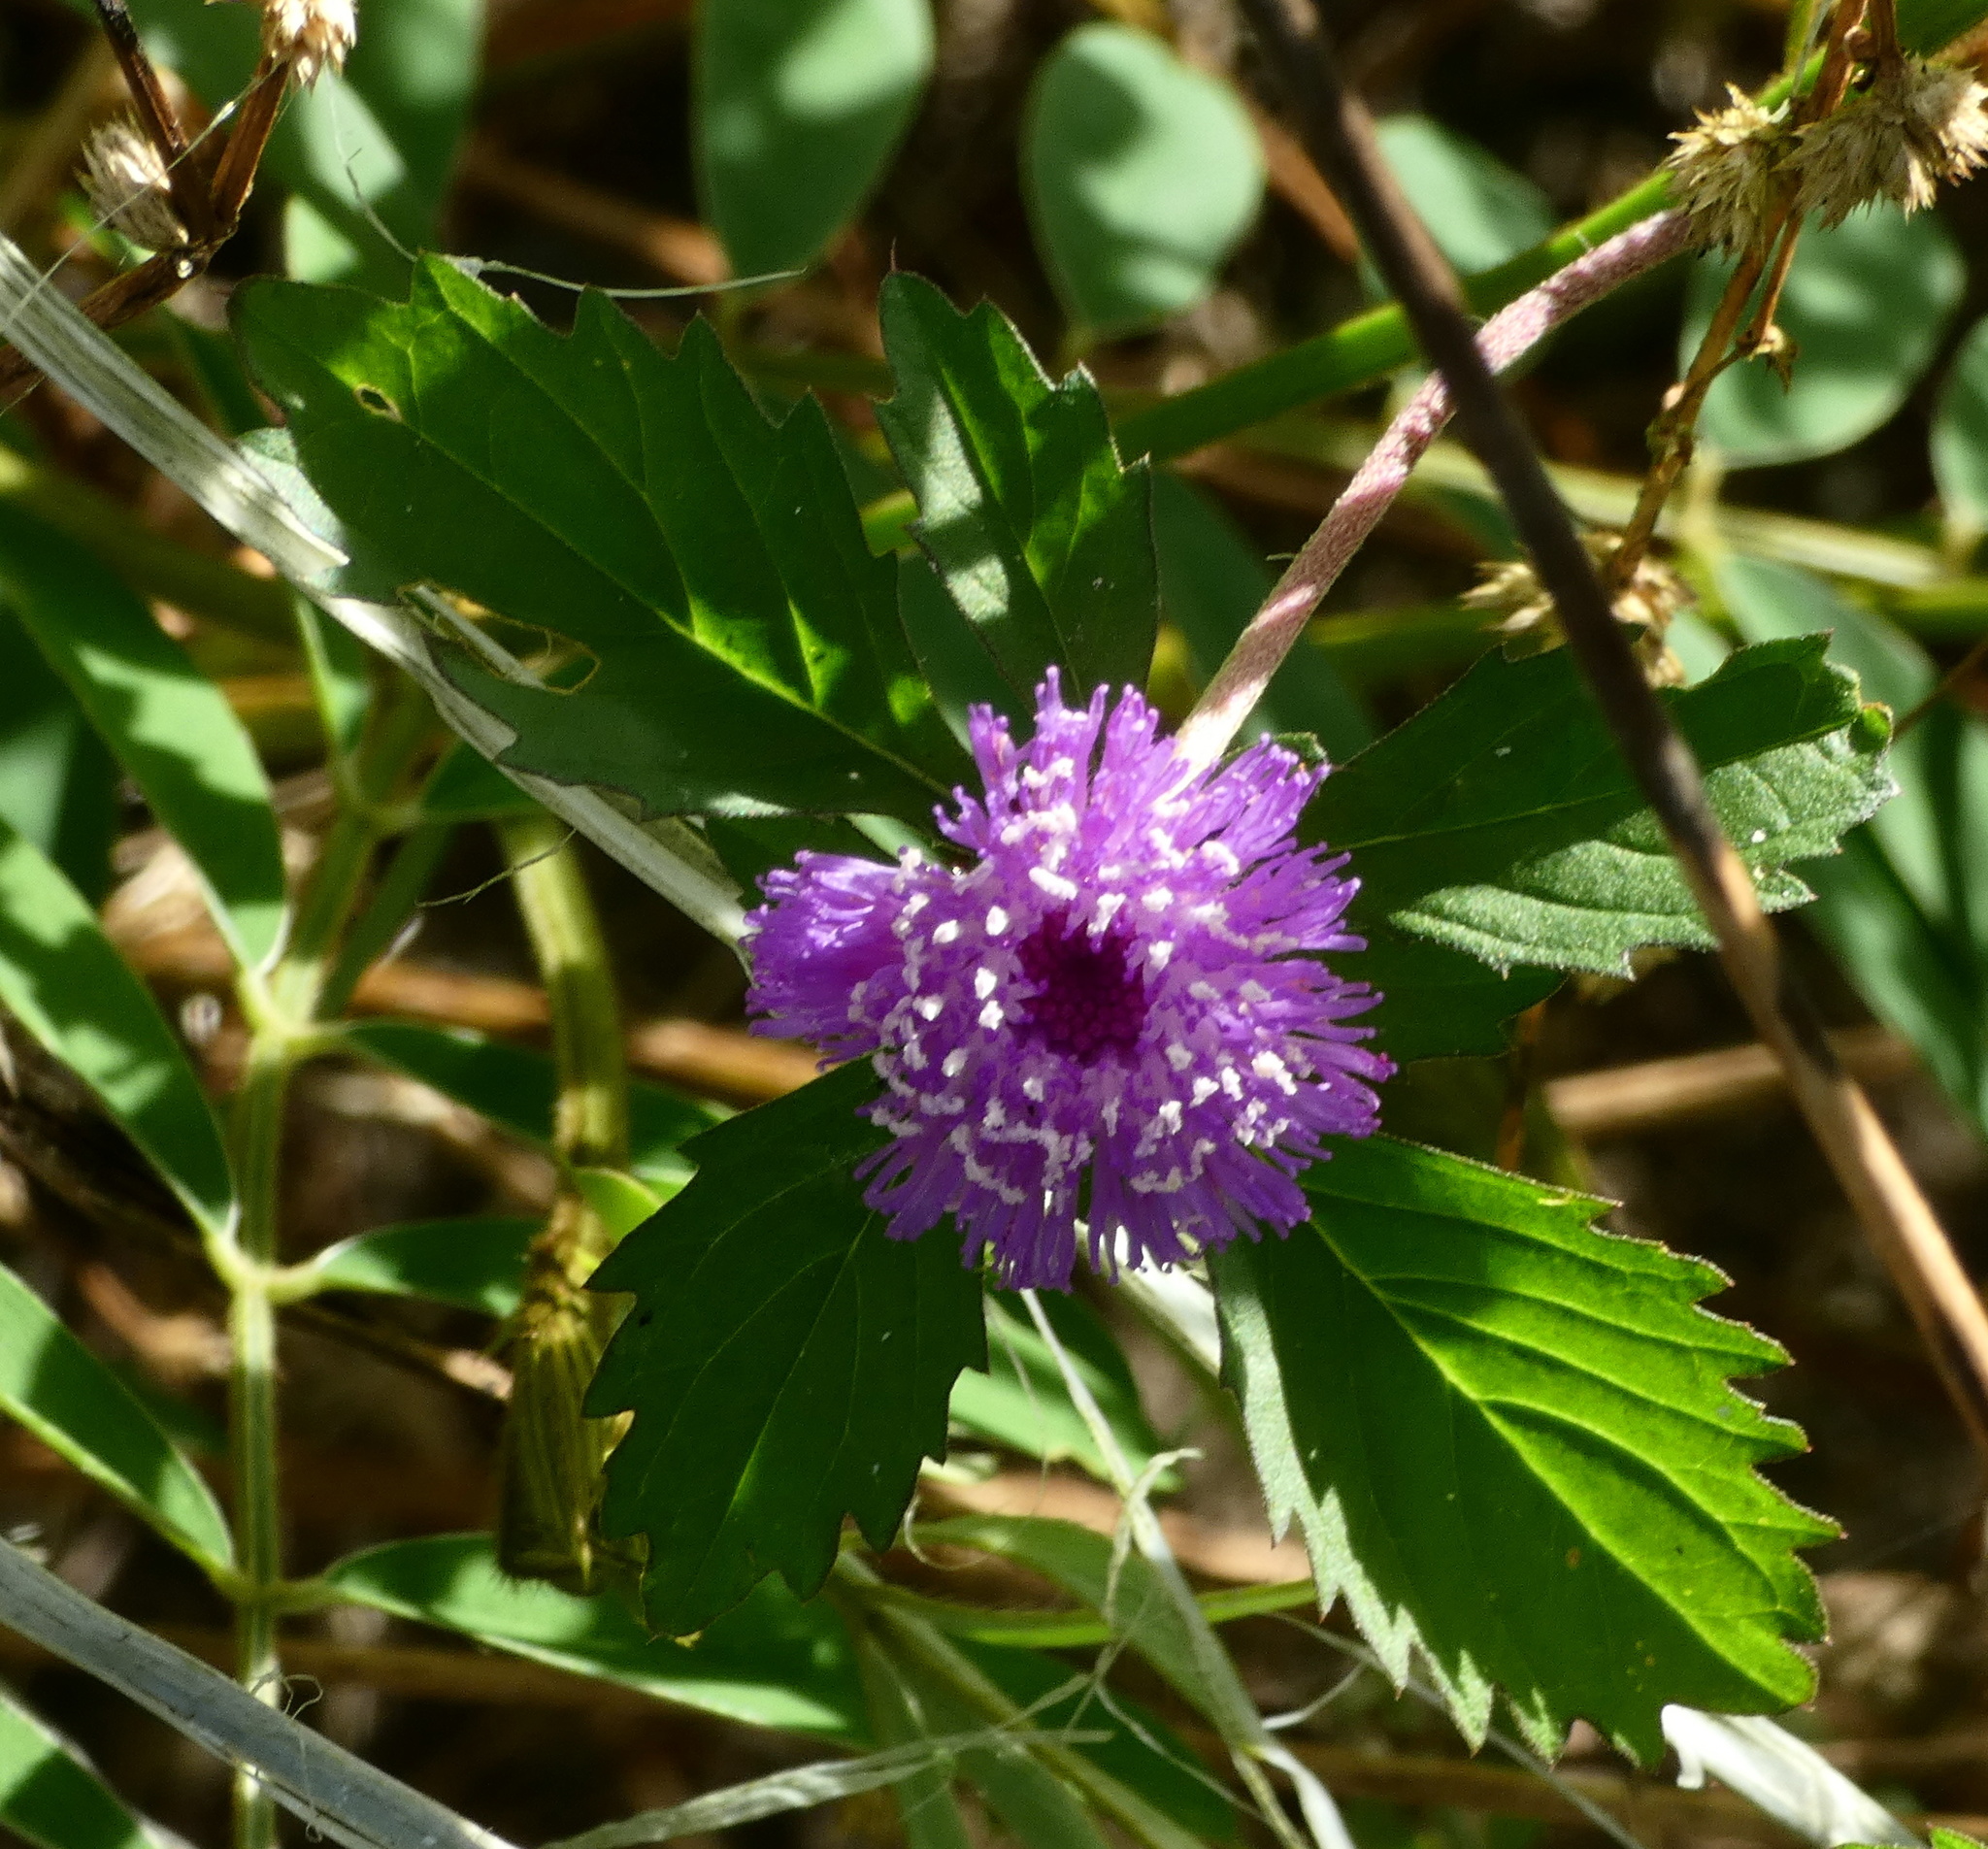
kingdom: Plantae
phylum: Tracheophyta
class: Magnoliopsida
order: Asterales
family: Asteraceae
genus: Centratherum
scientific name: Centratherum punctatum
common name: Larkdaisy
